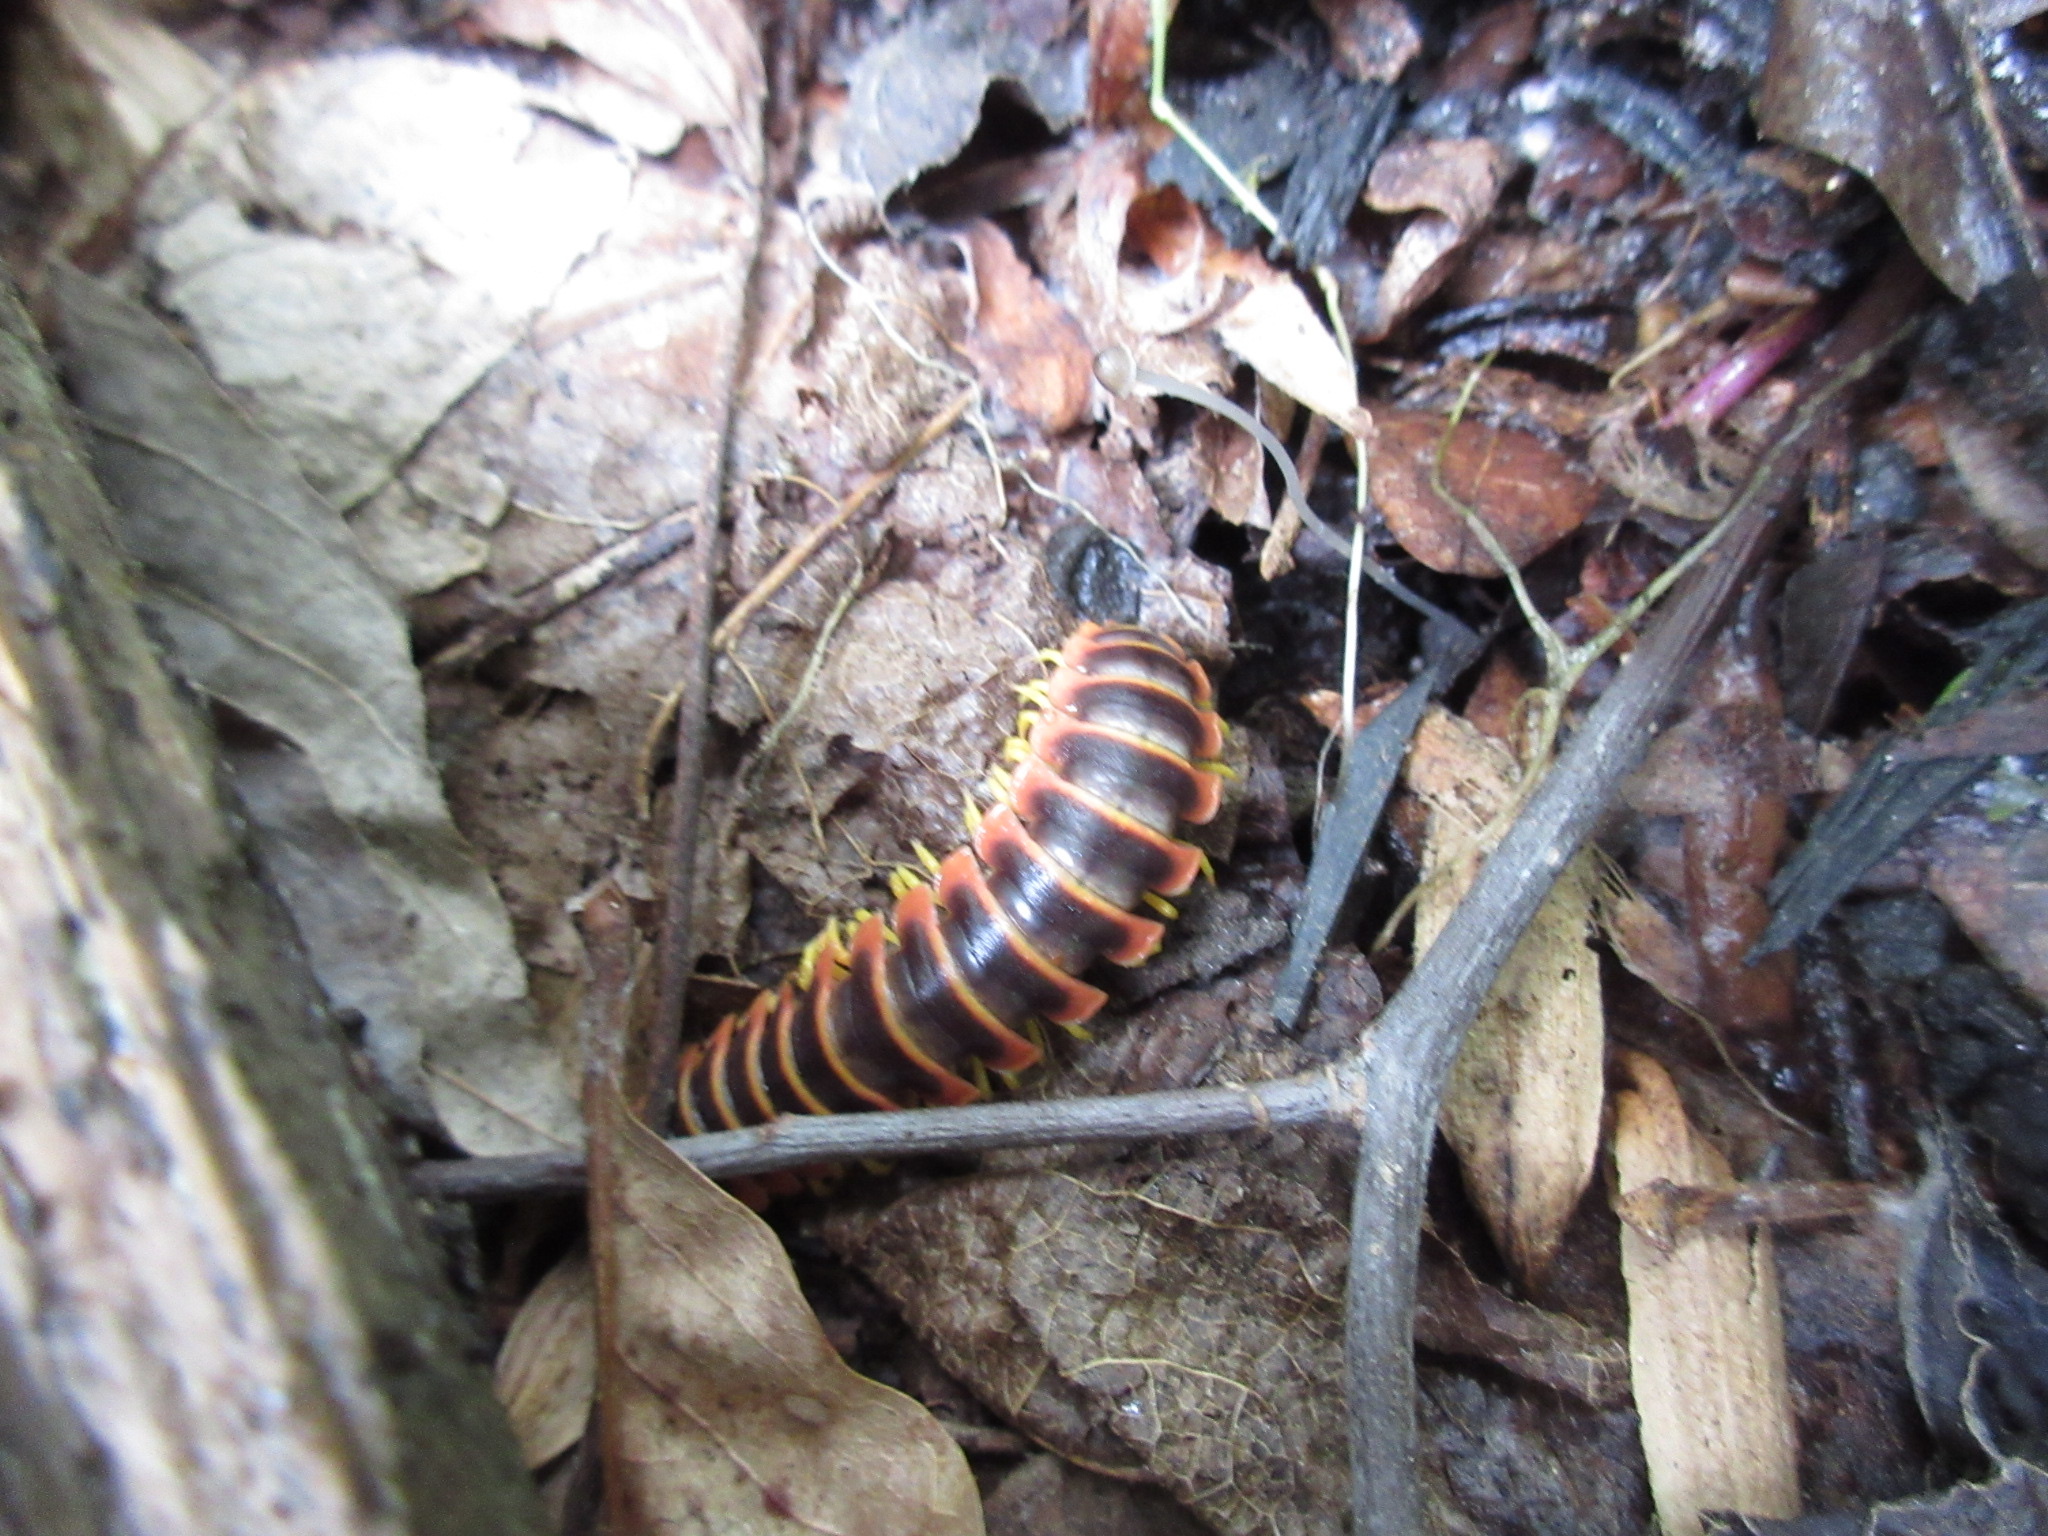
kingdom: Animalia
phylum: Arthropoda
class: Diplopoda
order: Polydesmida
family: Xystodesmidae
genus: Apheloria
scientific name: Apheloria virginiensis
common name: Black-and-gold flat millipede
